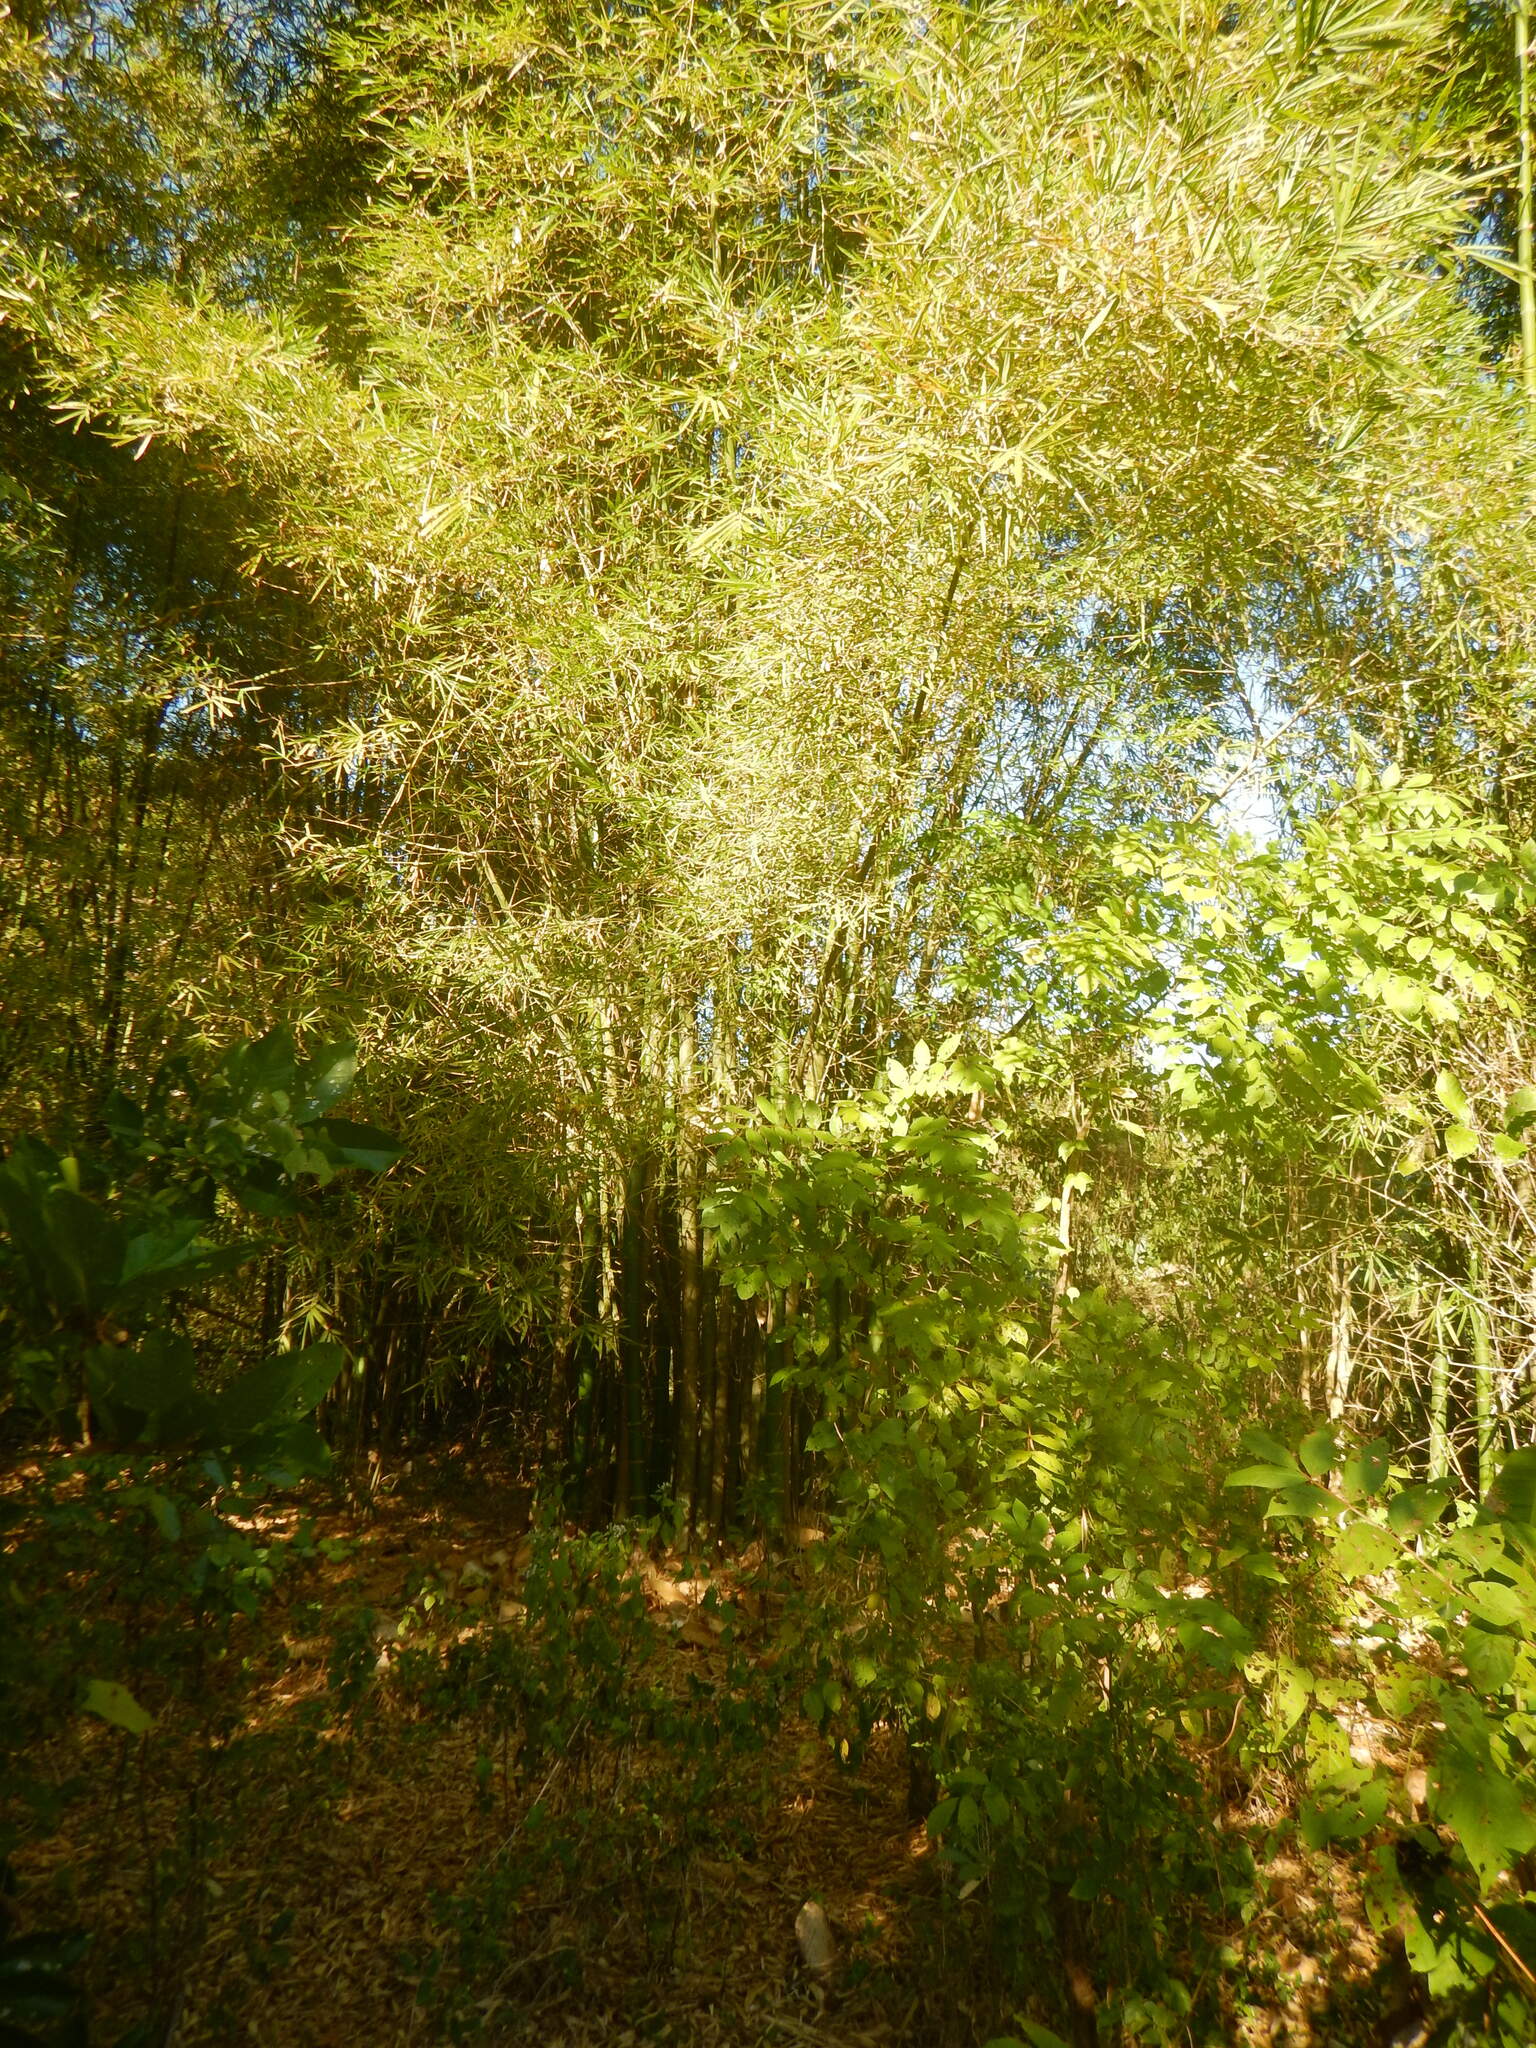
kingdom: Plantae
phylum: Tracheophyta
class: Liliopsida
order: Poales
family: Poaceae
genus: Bambusa
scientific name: Bambusa vulgaris
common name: Common bamboo
